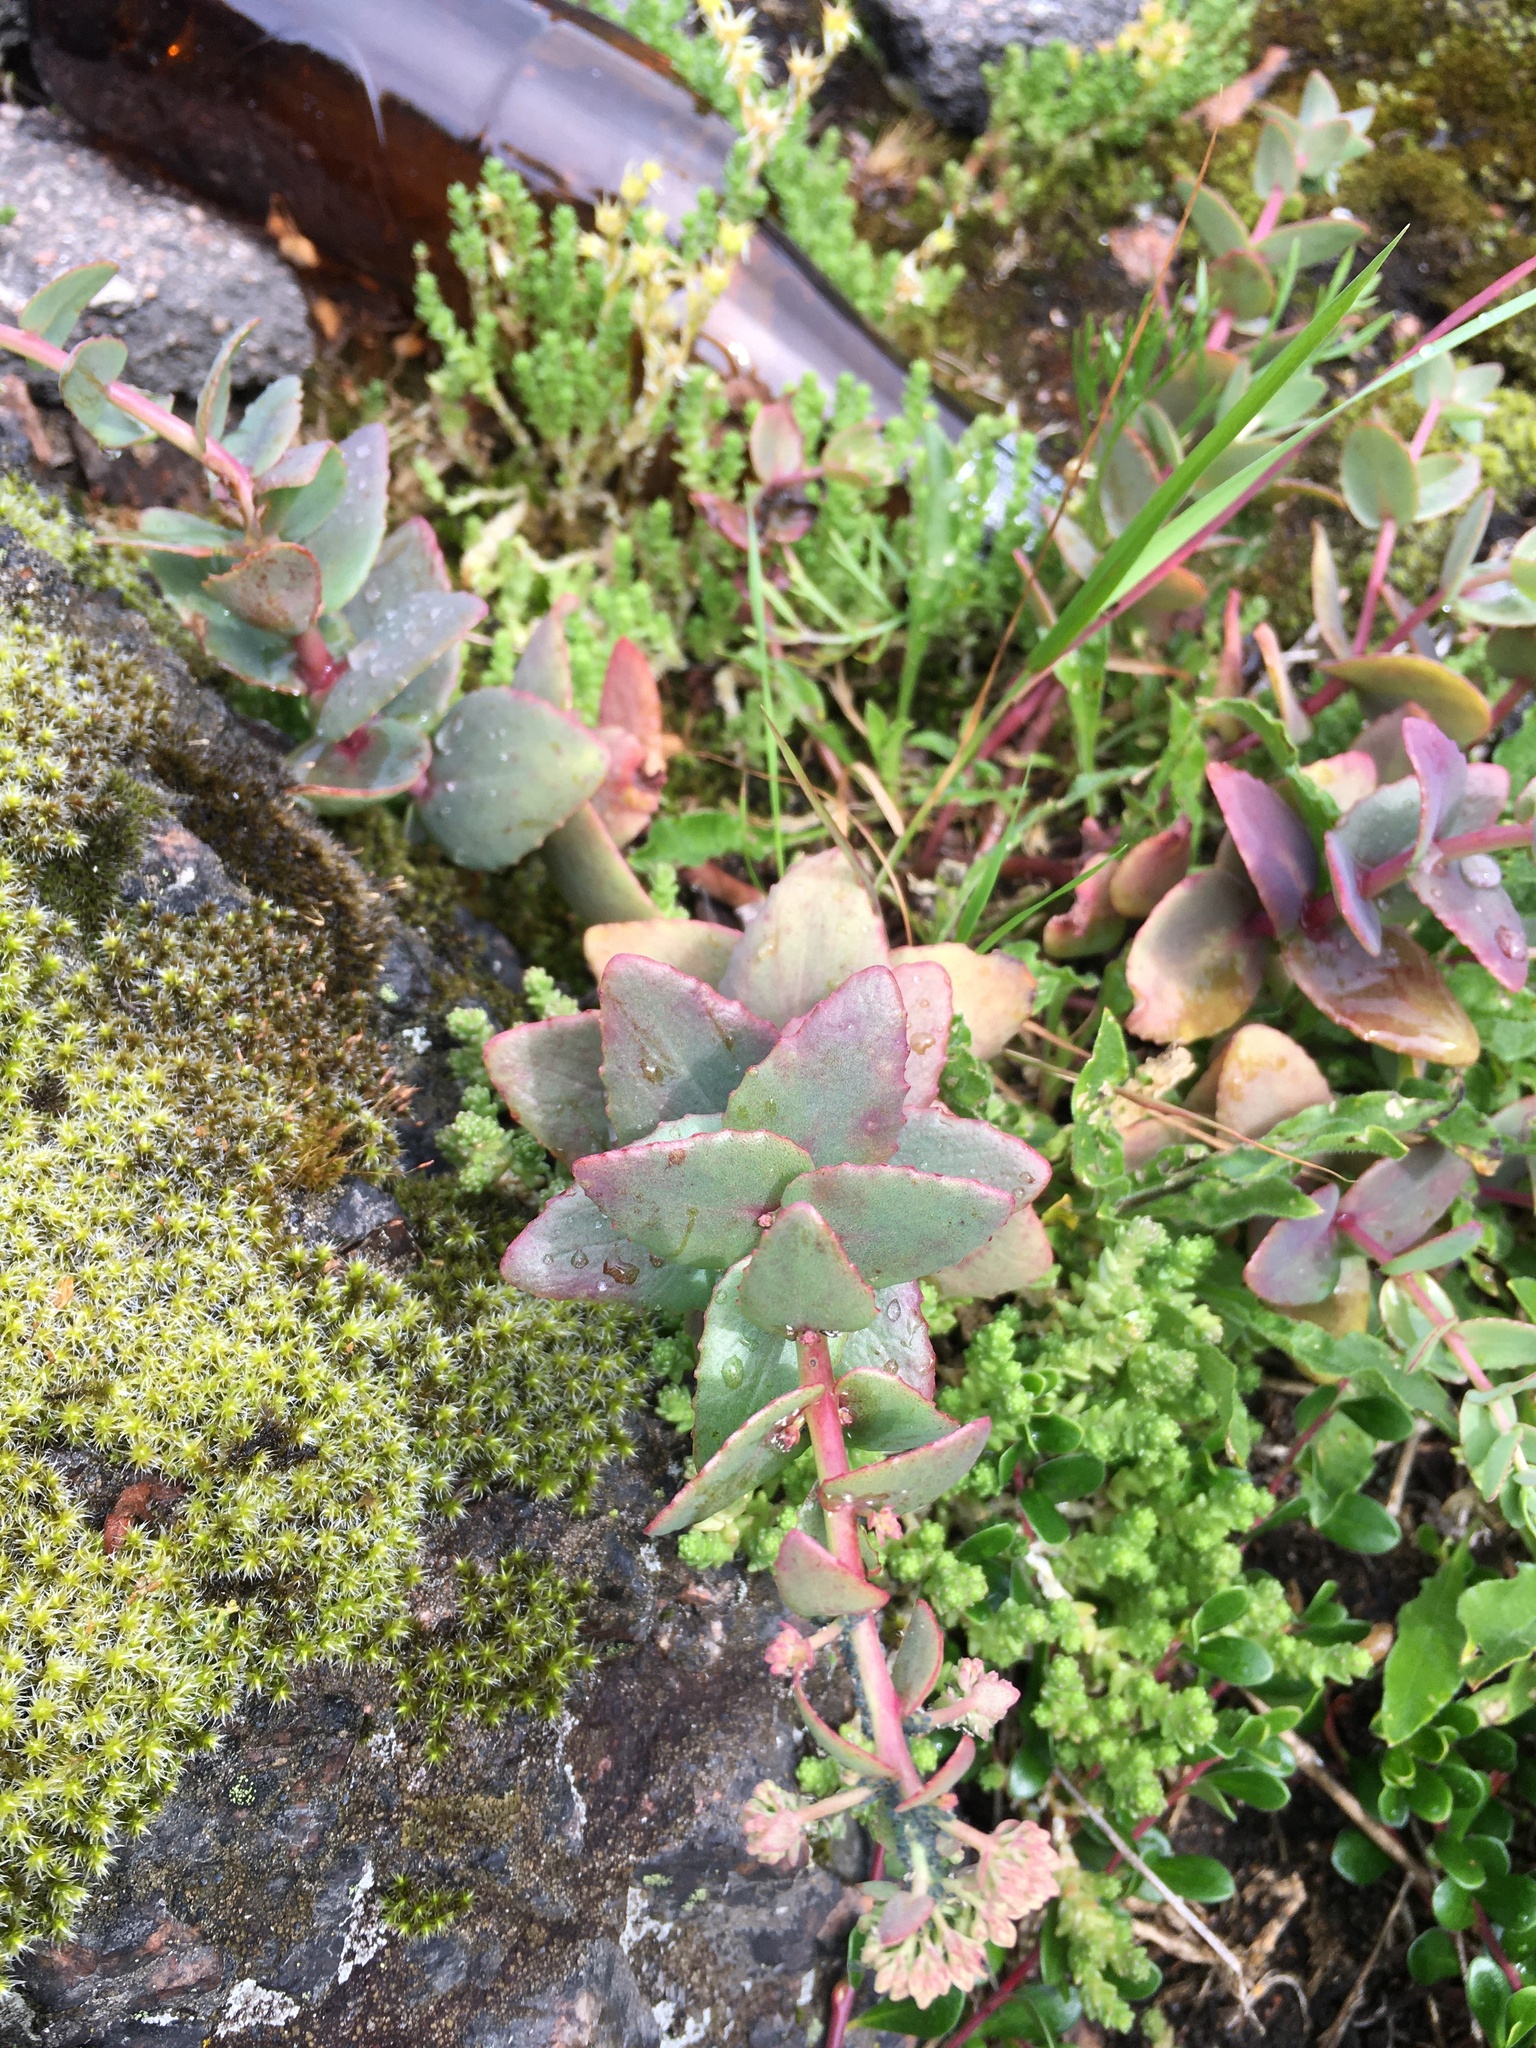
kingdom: Plantae
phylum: Tracheophyta
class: Magnoliopsida
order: Saxifragales
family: Crassulaceae
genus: Hylotelephium
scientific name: Hylotelephium maximum
